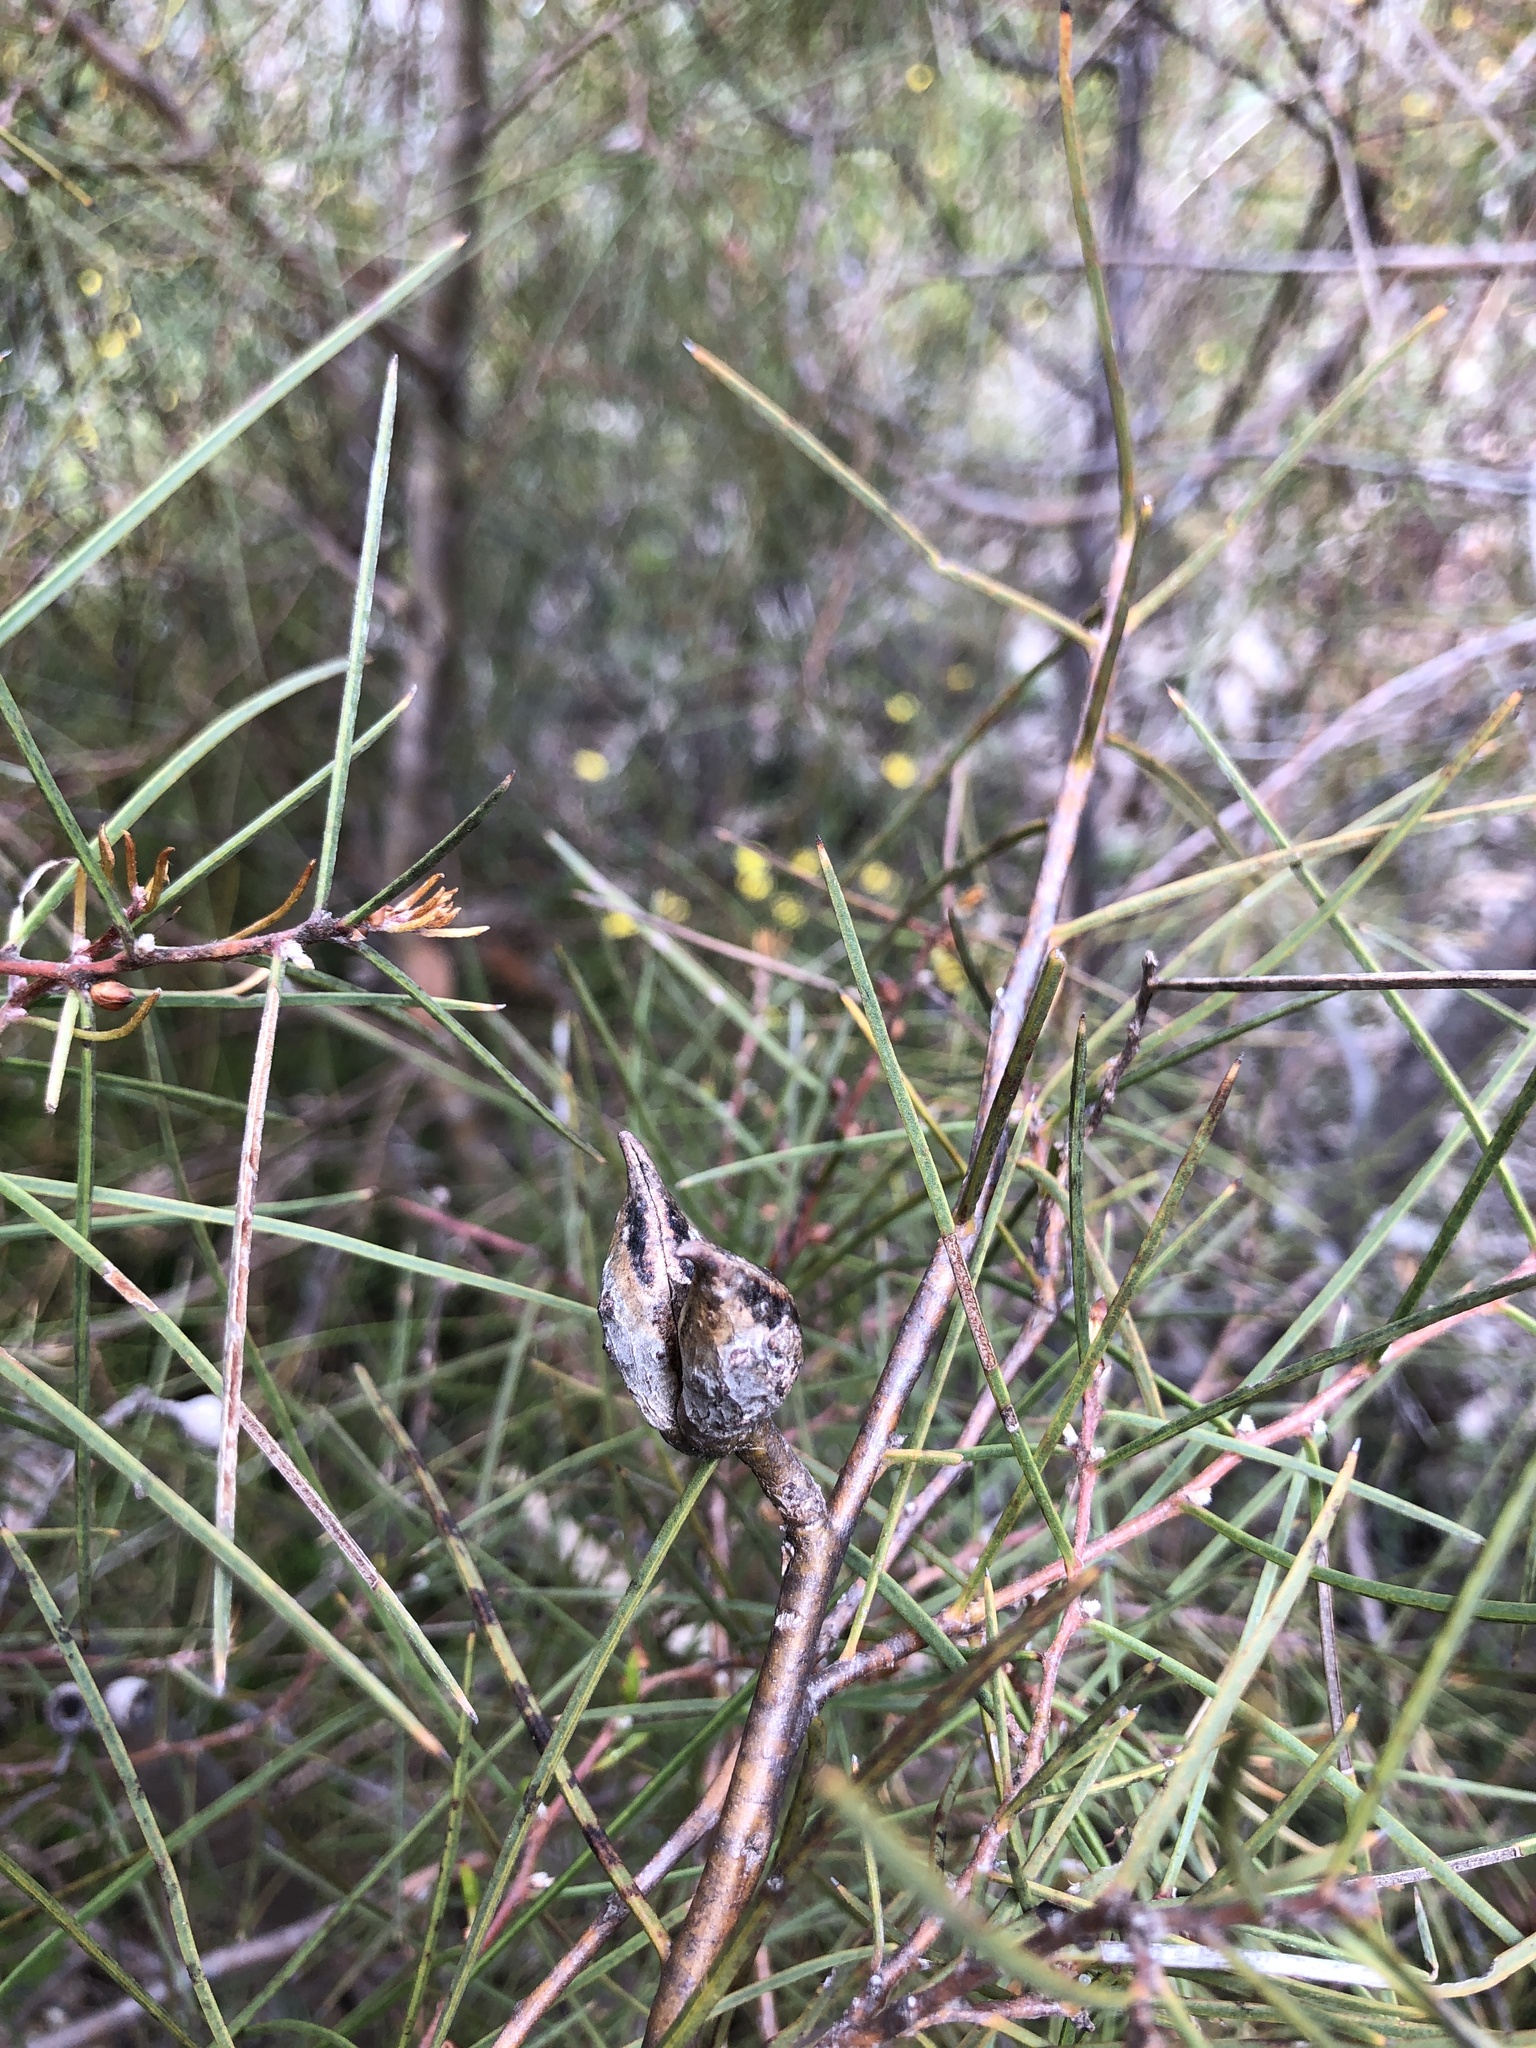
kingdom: Plantae
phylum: Tracheophyta
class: Magnoliopsida
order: Proteales
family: Proteaceae
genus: Hakea
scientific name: Hakea carinata
